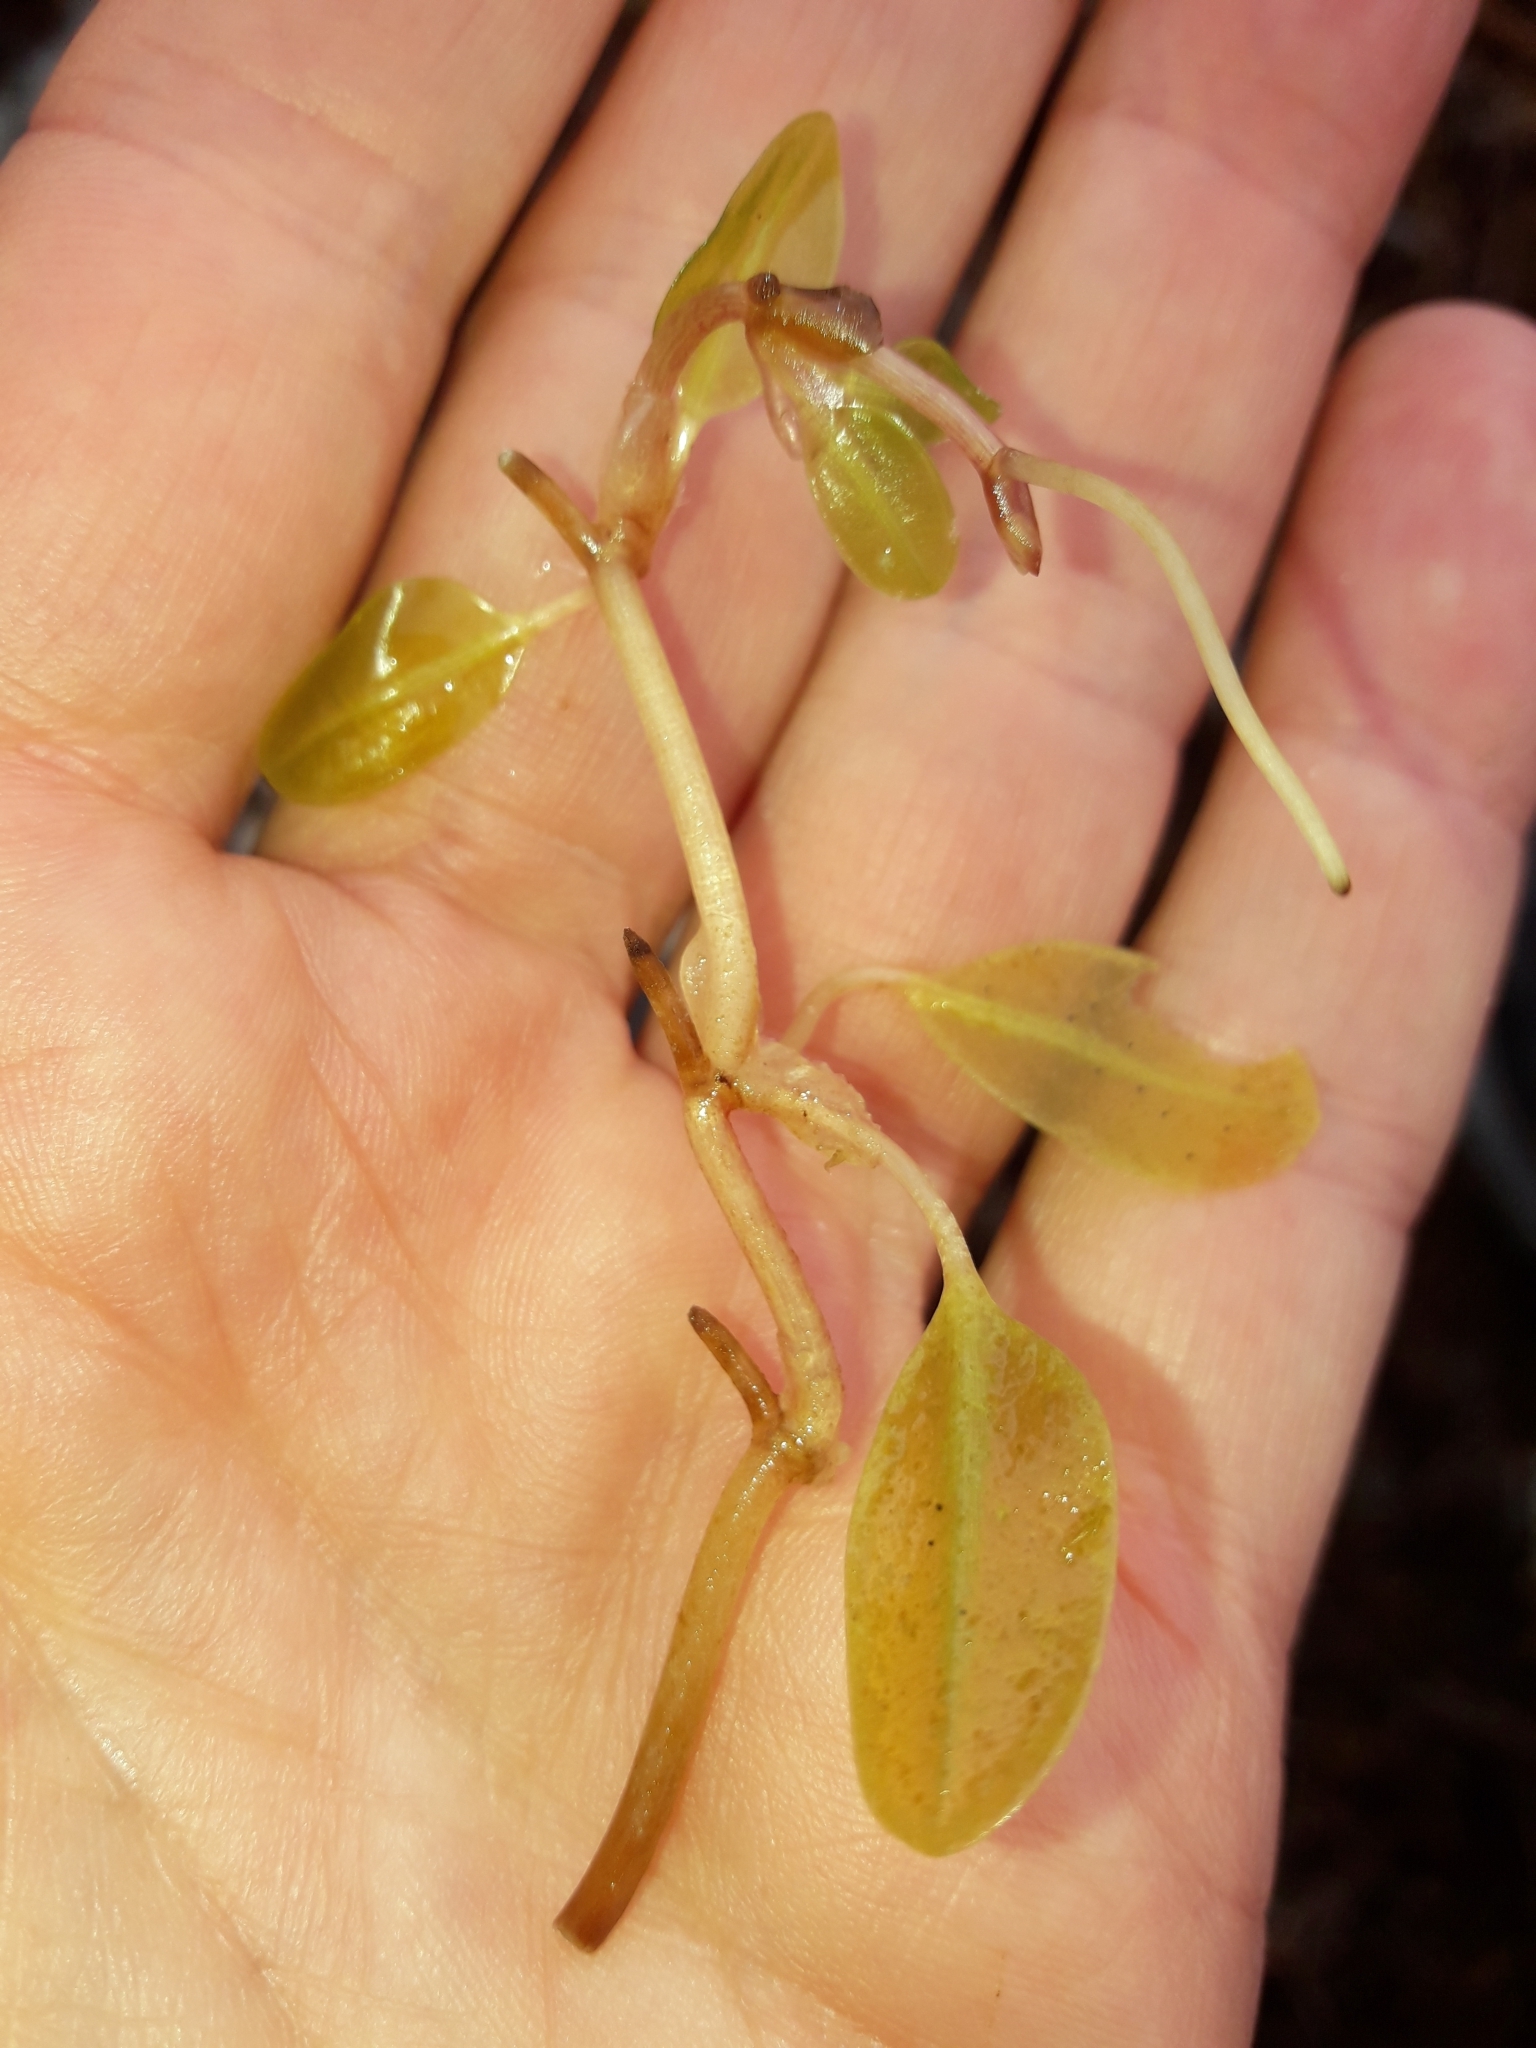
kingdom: Plantae
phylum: Tracheophyta
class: Liliopsida
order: Alismatales
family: Hydrocharitaceae
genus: Halophila
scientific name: Halophila ovalis
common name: Species code: ho
